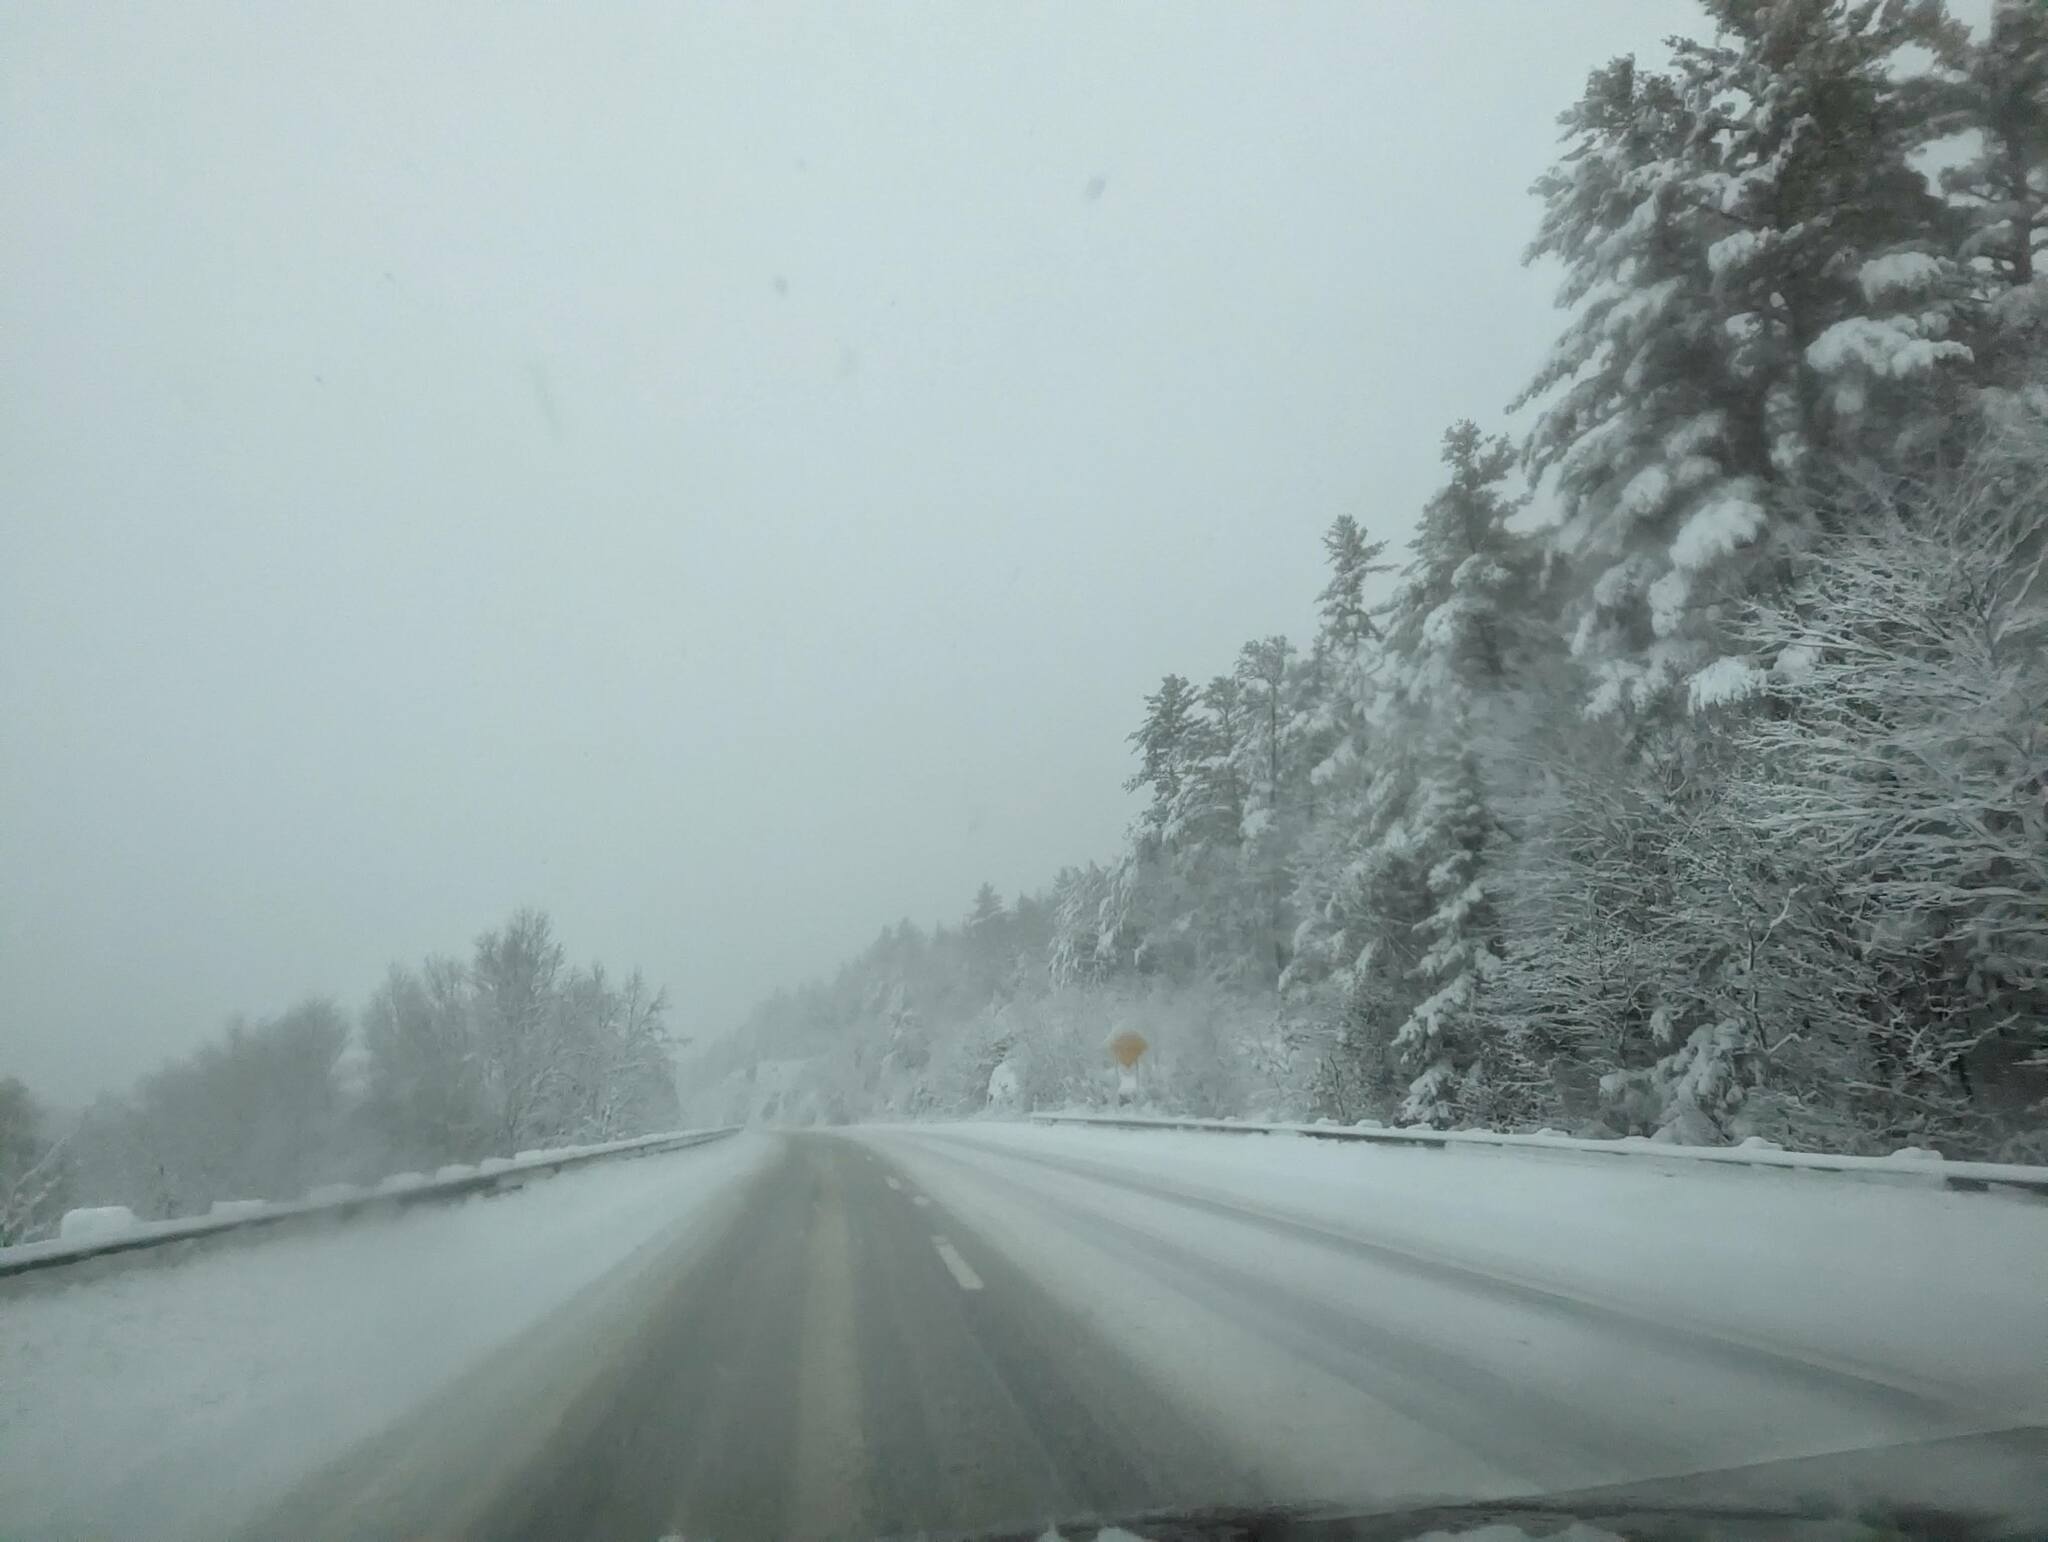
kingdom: Plantae
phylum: Tracheophyta
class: Pinopsida
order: Pinales
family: Pinaceae
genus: Pinus
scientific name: Pinus strobus
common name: Weymouth pine
